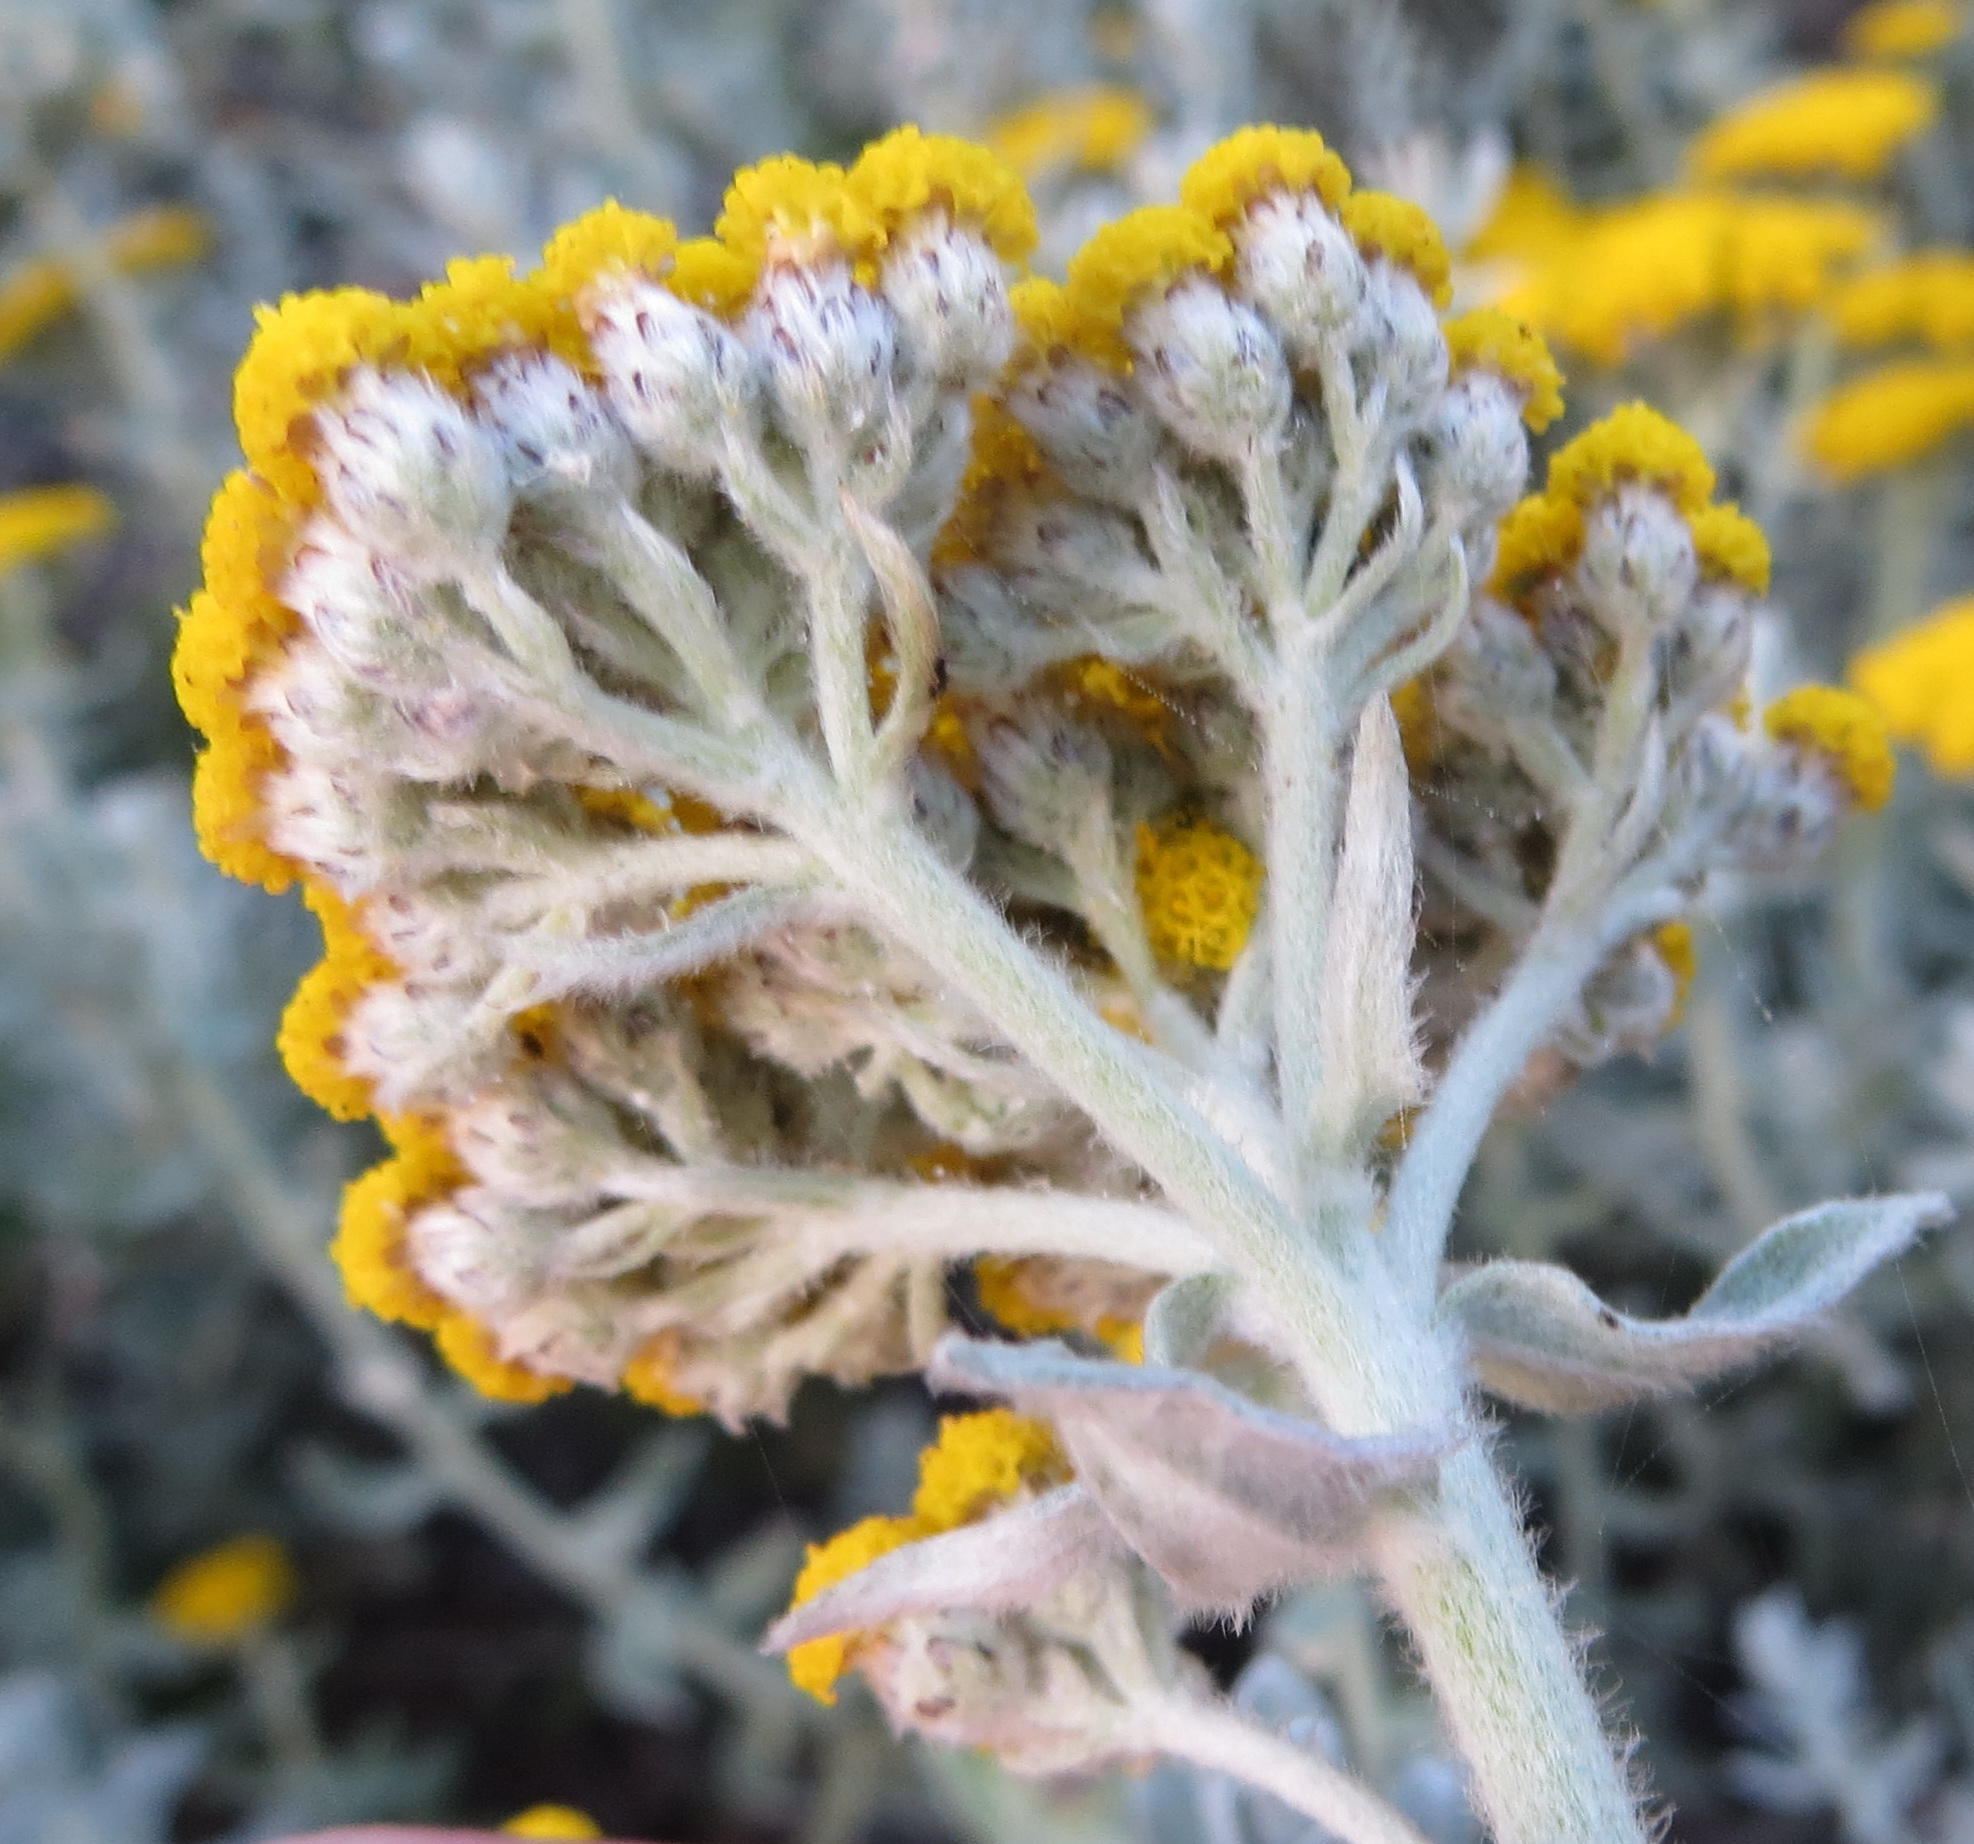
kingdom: Plantae
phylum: Tracheophyta
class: Magnoliopsida
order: Asterales
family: Asteraceae
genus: Helichrysum
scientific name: Helichrysum dasyanthum
